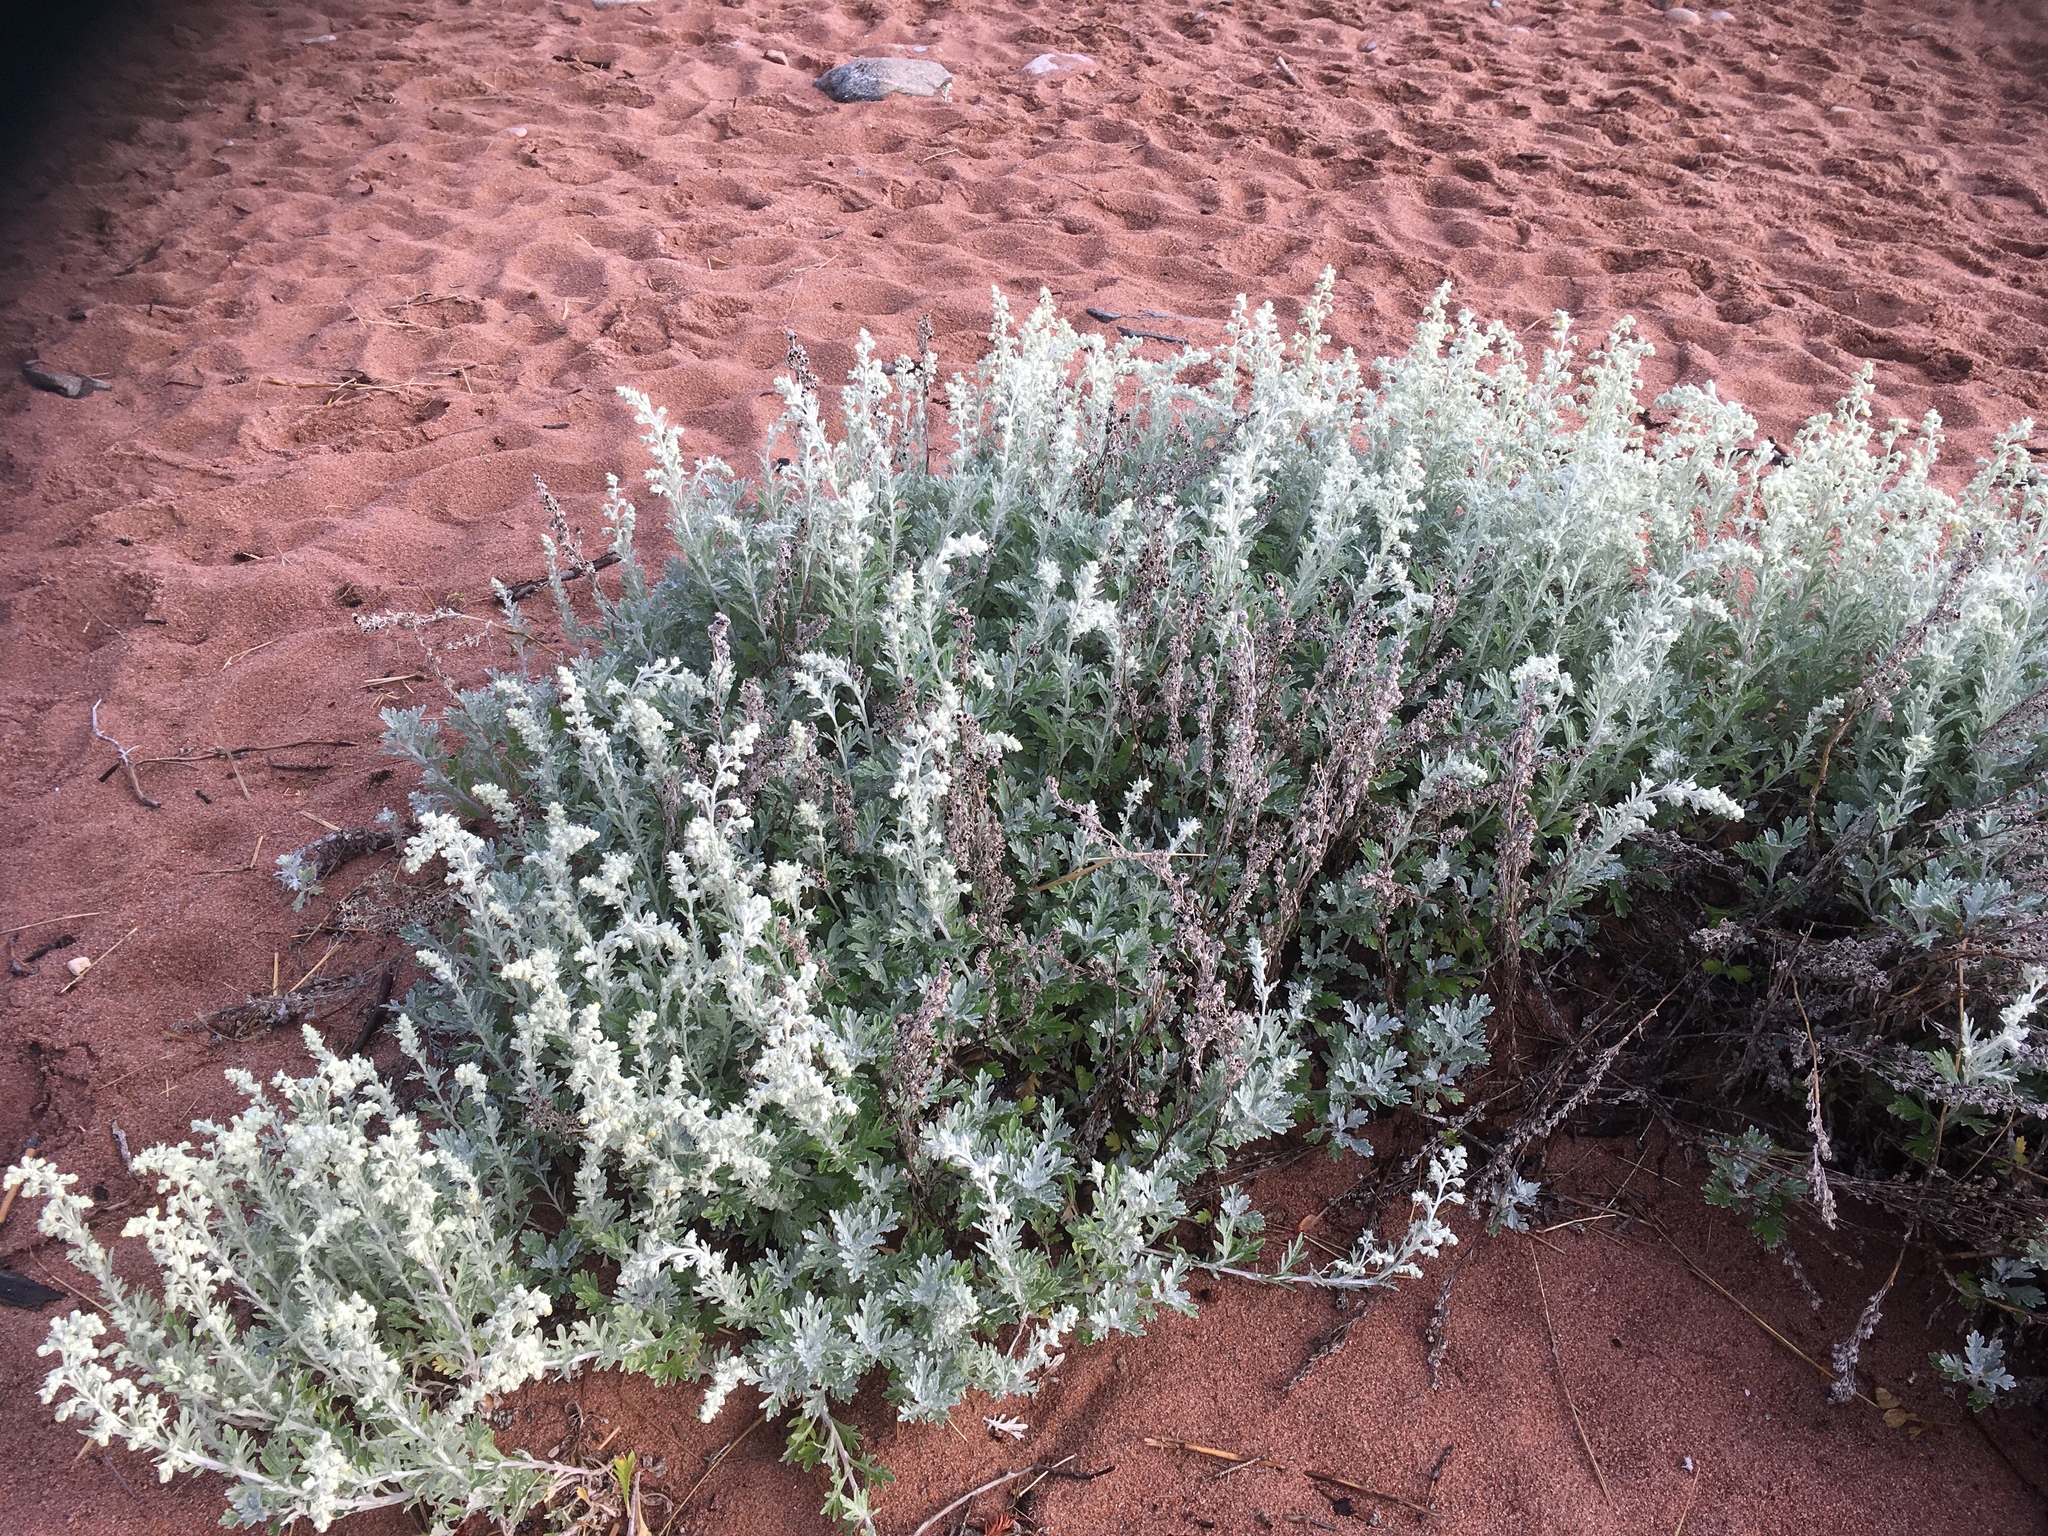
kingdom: Plantae
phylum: Tracheophyta
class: Magnoliopsida
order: Asterales
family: Asteraceae
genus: Artemisia
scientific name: Artemisia stelleriana
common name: Beach wormwood
